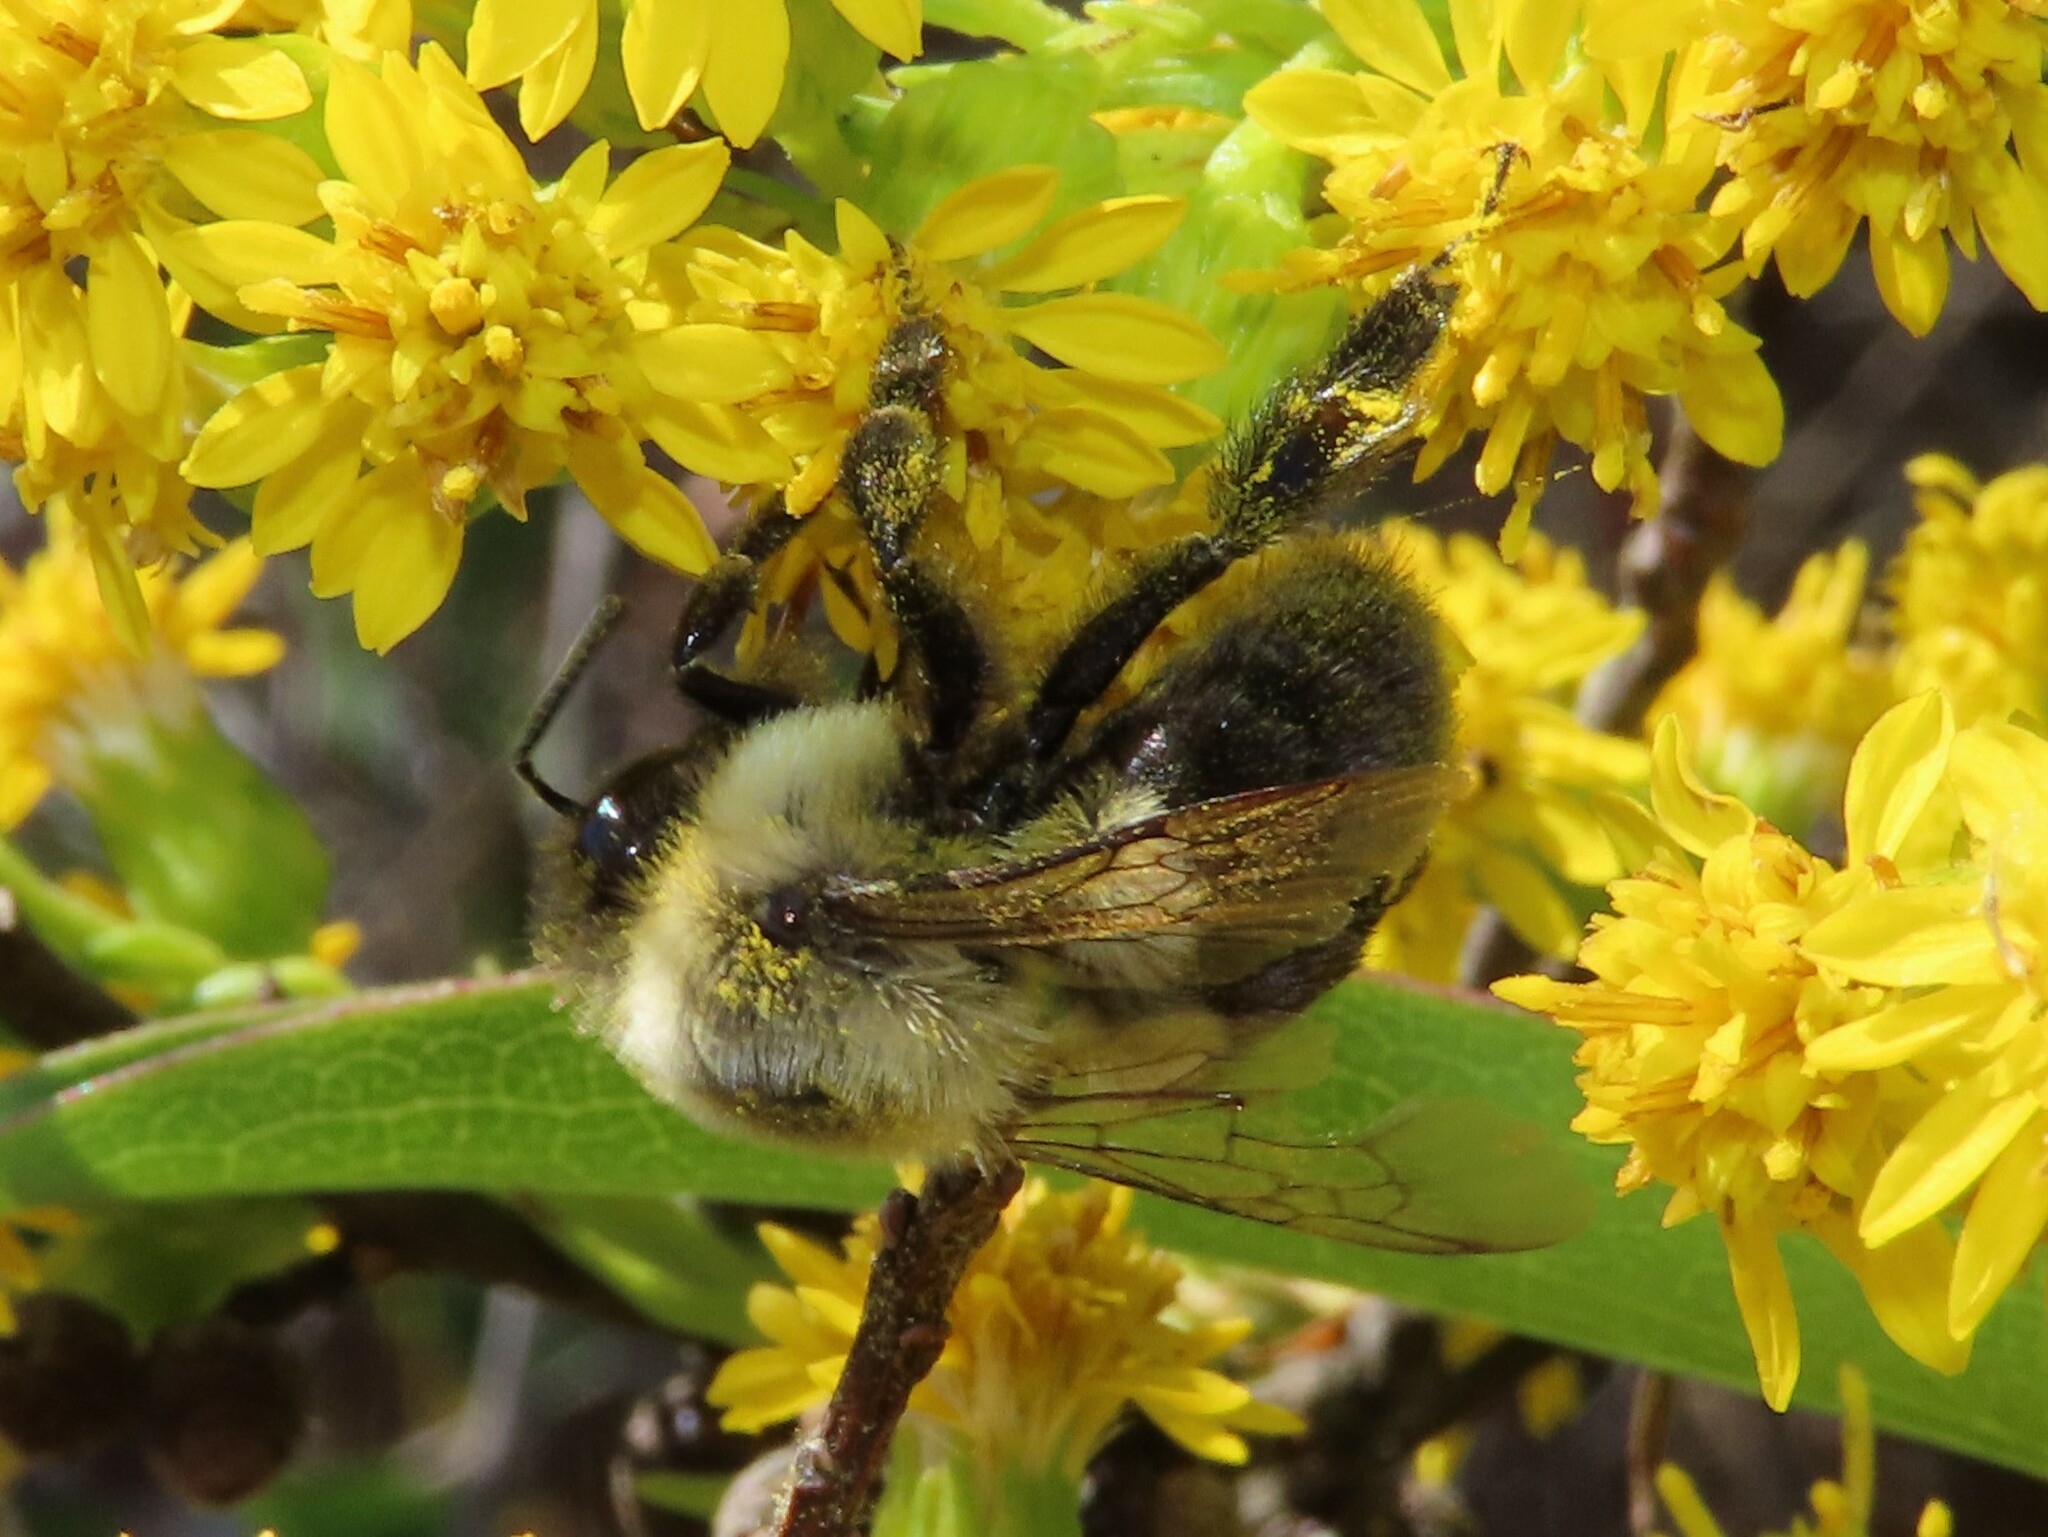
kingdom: Animalia
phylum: Arthropoda
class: Insecta
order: Hymenoptera
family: Apidae
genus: Bombus
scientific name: Bombus impatiens
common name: Common eastern bumble bee
